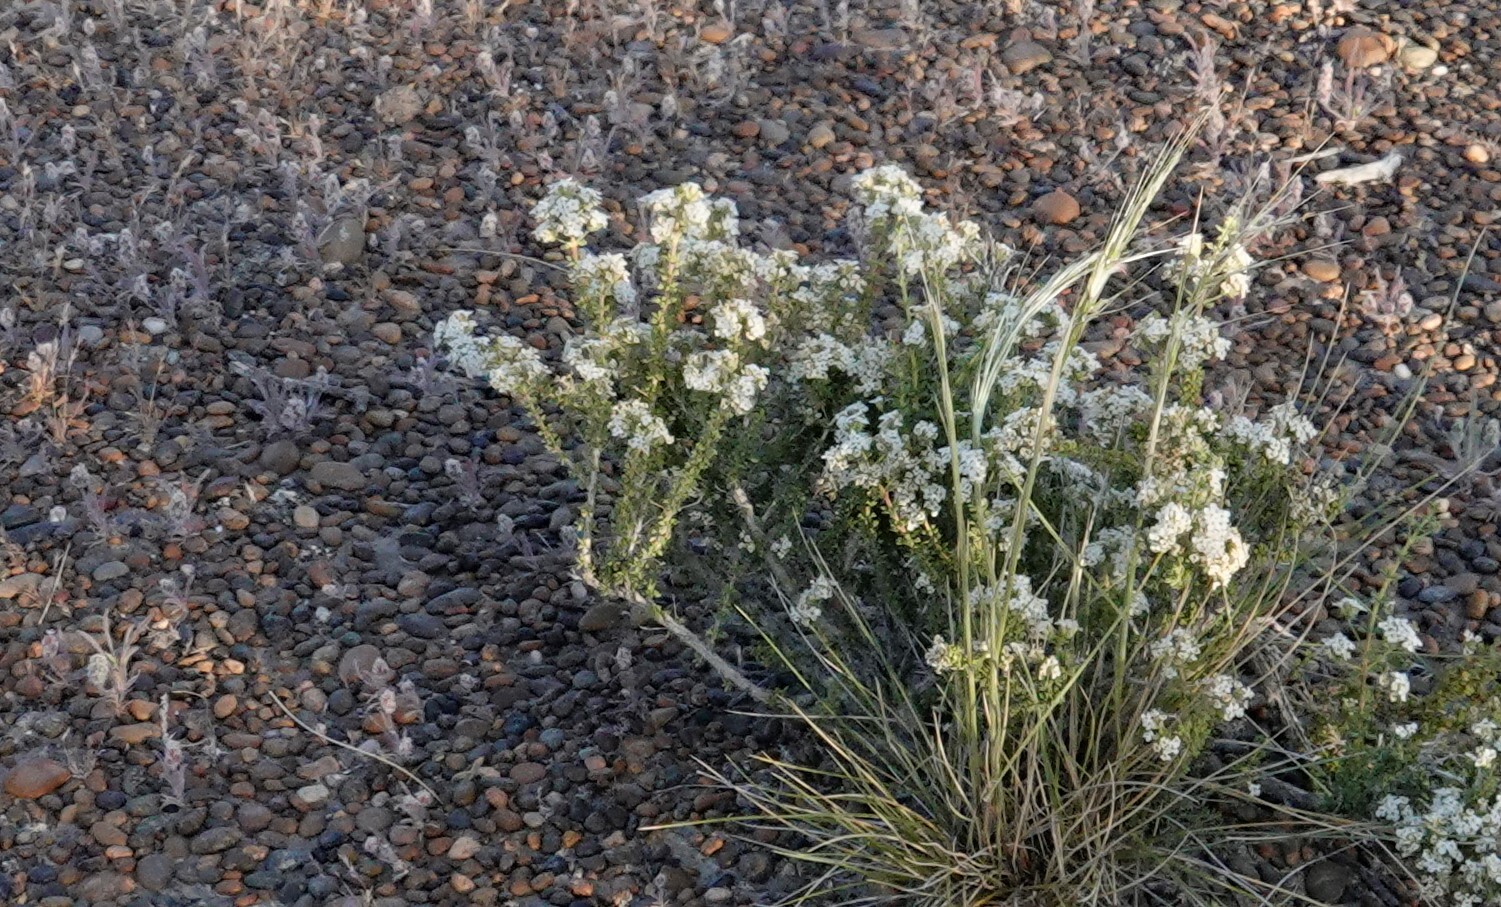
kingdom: Plantae
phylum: Tracheophyta
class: Magnoliopsida
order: Lamiales
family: Verbenaceae
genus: Acantholippia
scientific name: Acantholippia seriphioides
